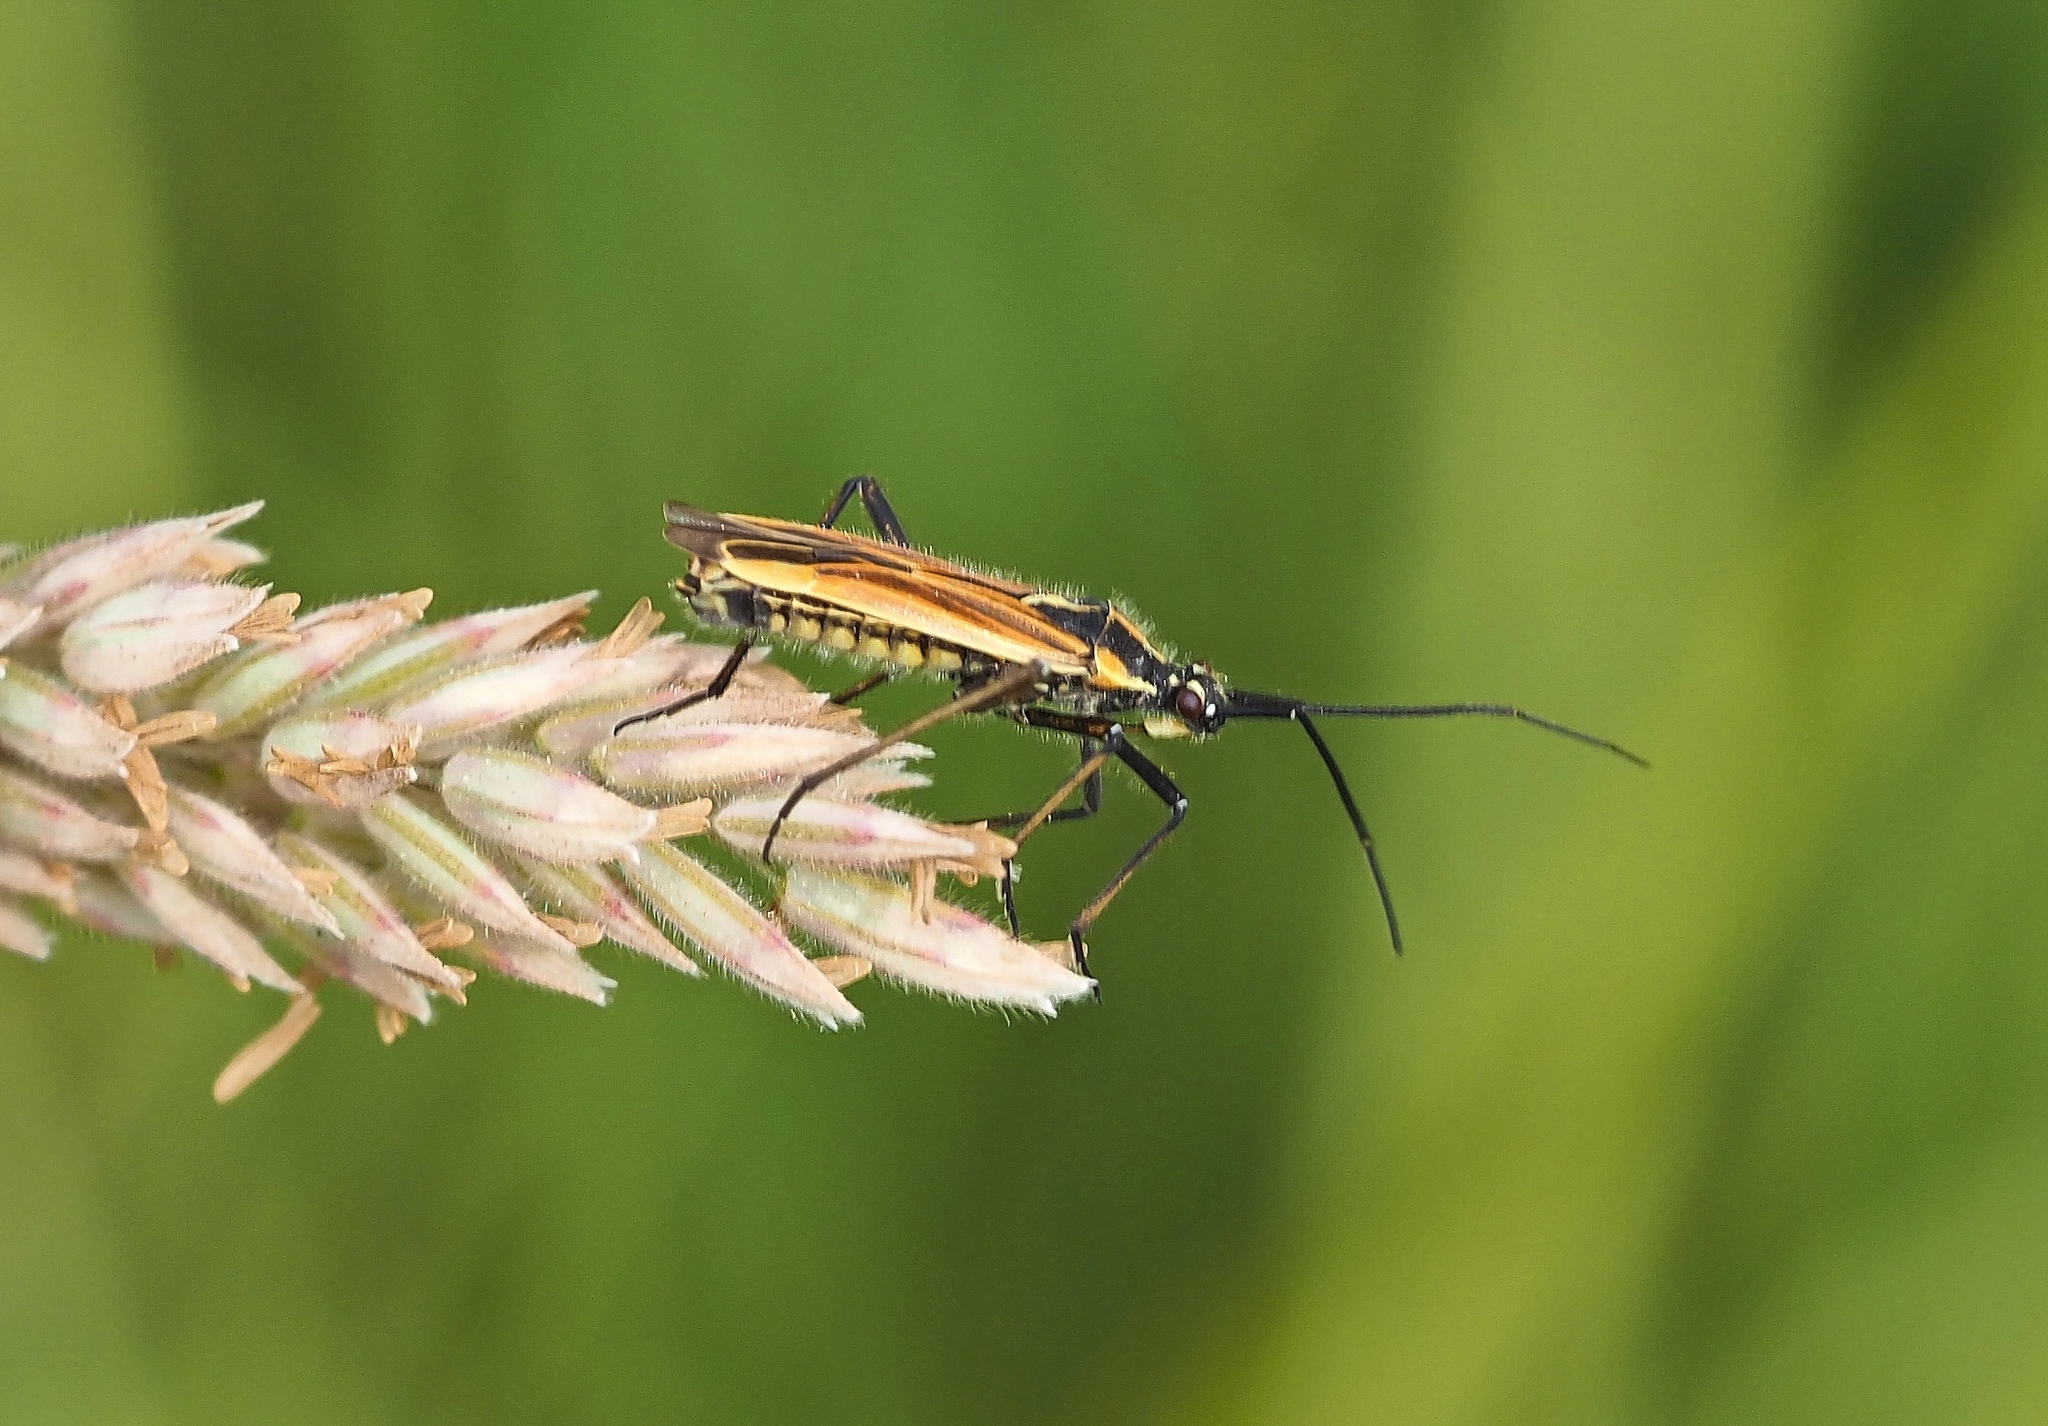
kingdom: Animalia
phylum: Arthropoda
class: Insecta
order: Hemiptera
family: Miridae
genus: Leptopterna
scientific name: Leptopterna dolabrata
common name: Meadow plant bug
